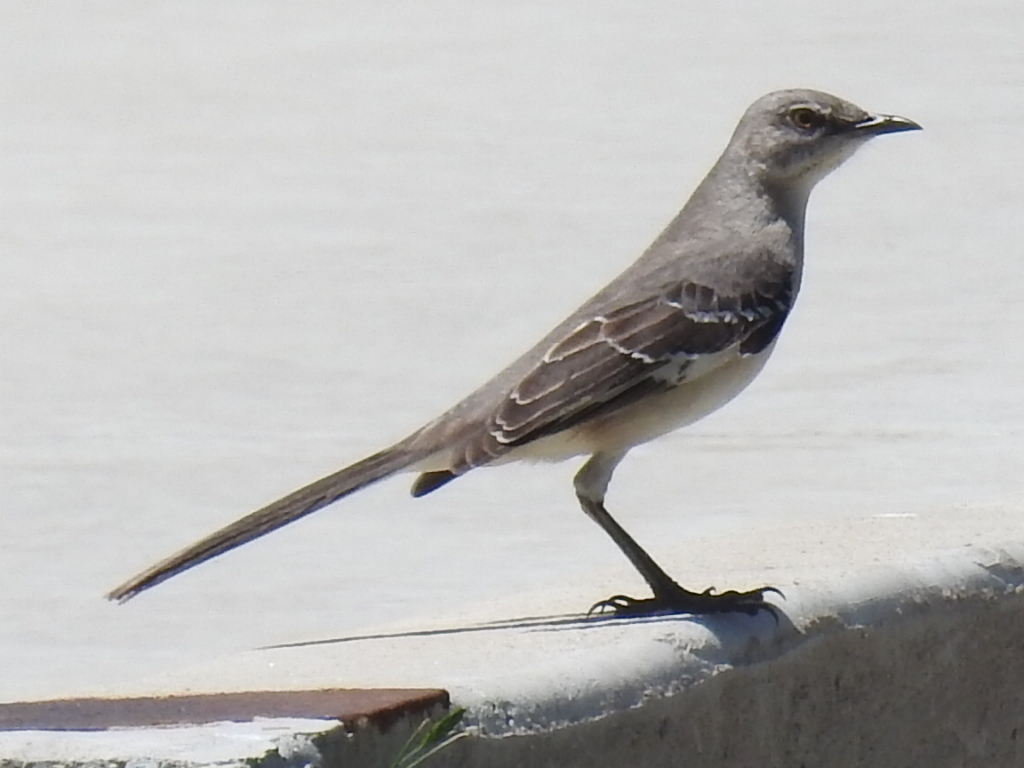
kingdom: Animalia
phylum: Chordata
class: Aves
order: Passeriformes
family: Mimidae
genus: Mimus
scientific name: Mimus polyglottos
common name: Northern mockingbird
